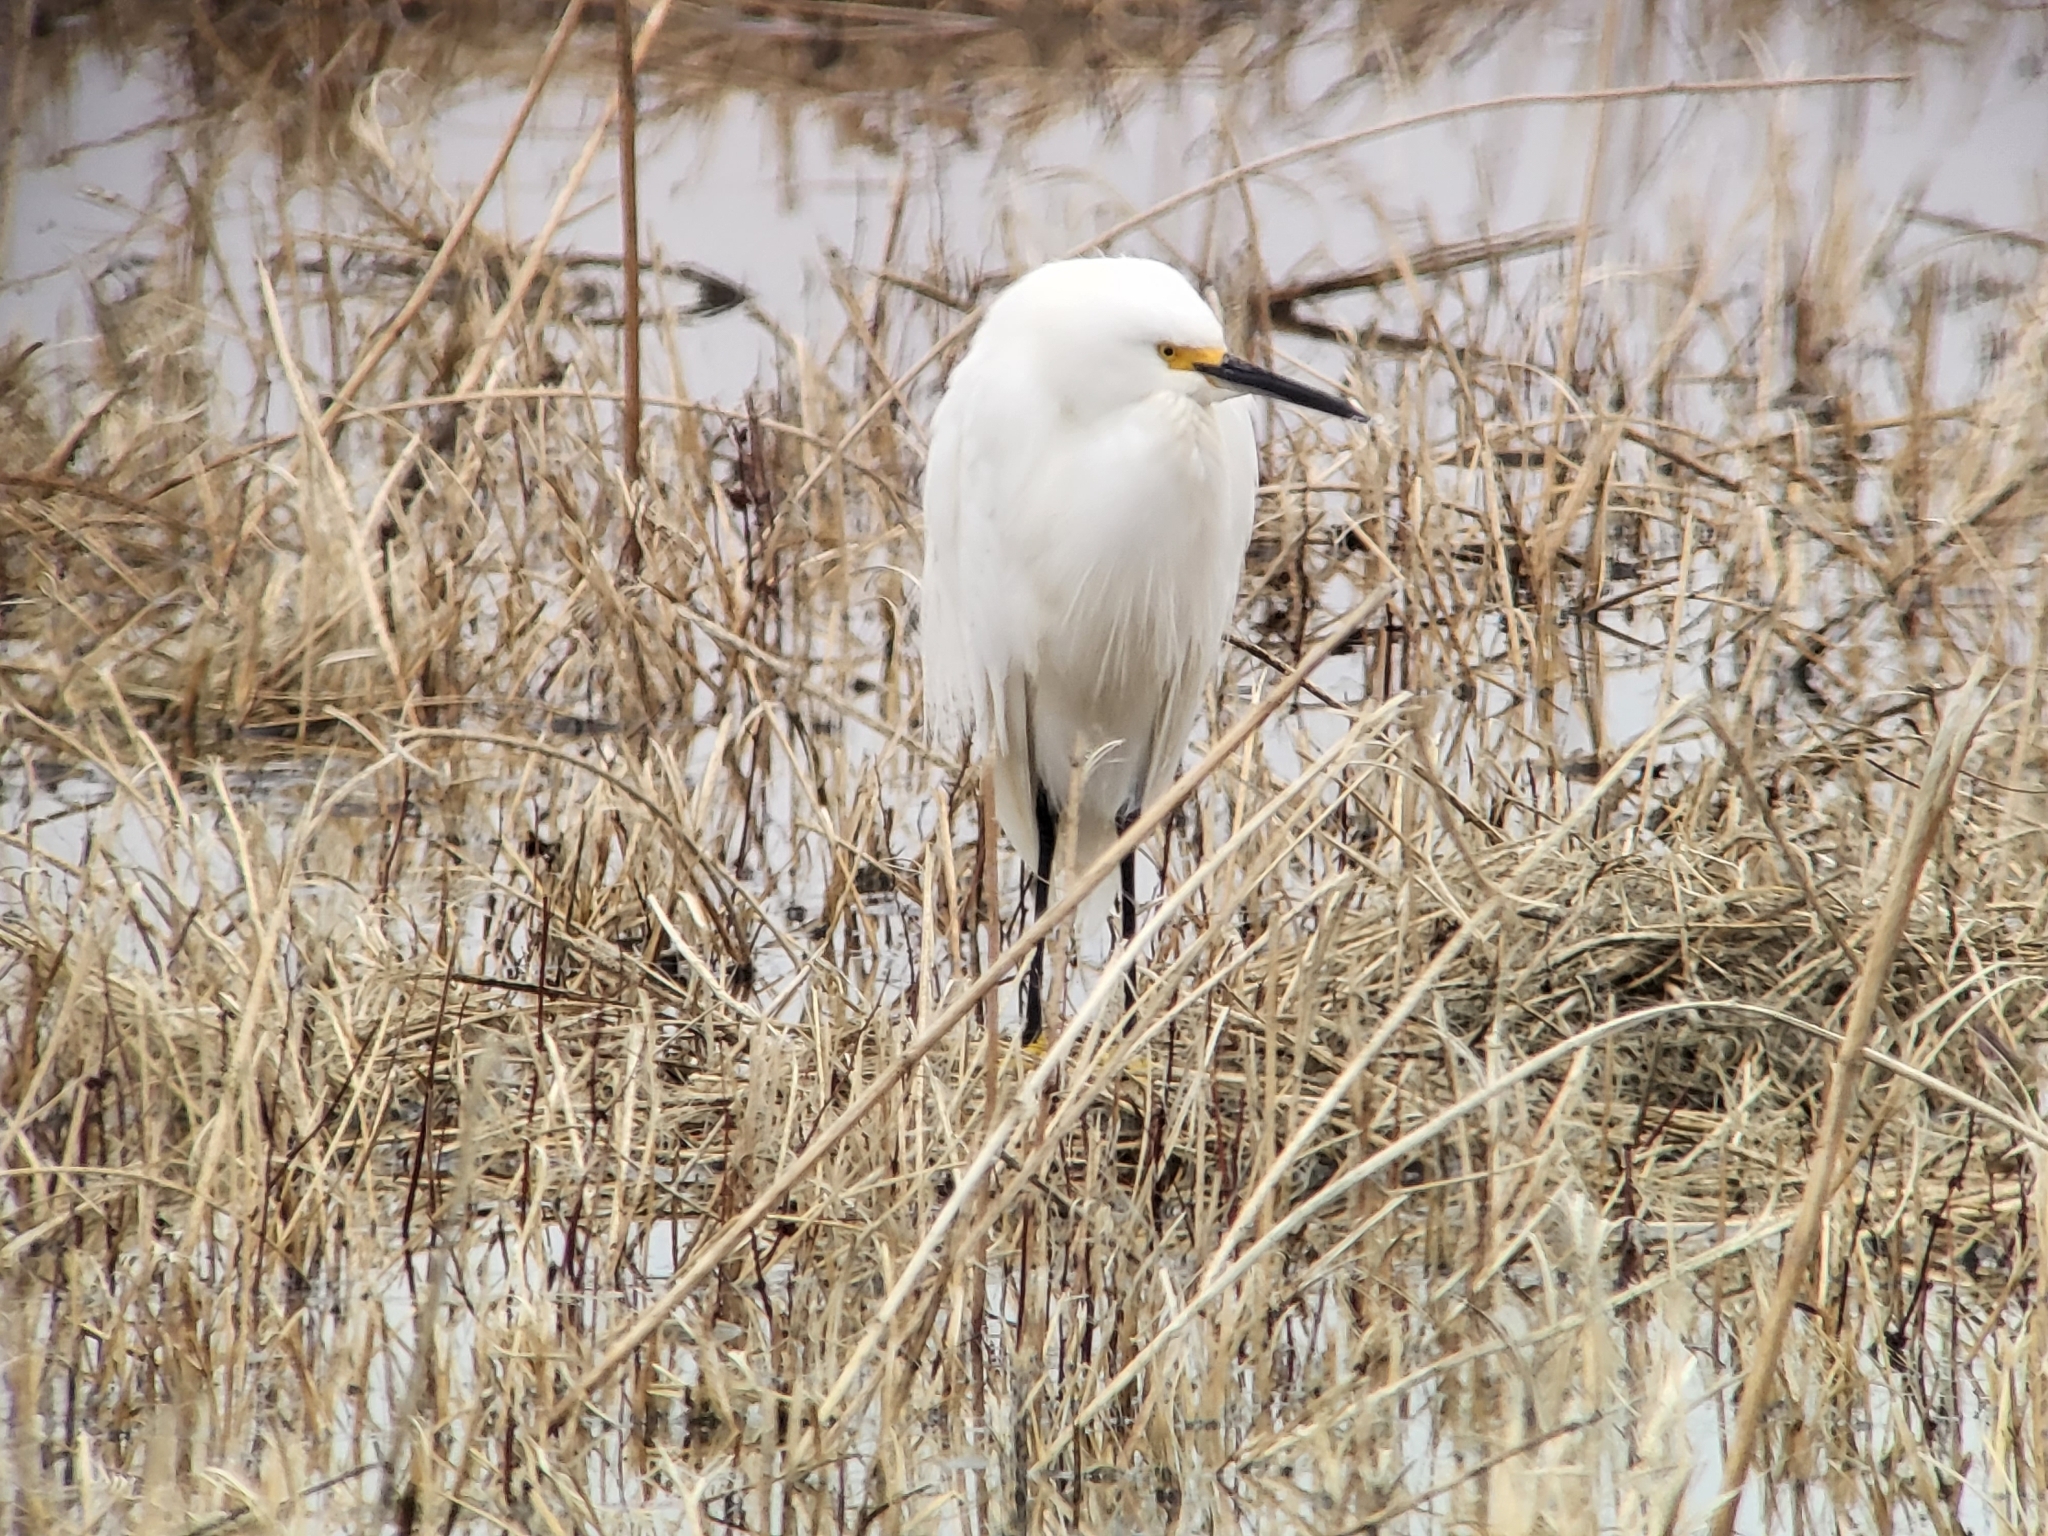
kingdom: Animalia
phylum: Chordata
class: Aves
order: Pelecaniformes
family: Ardeidae
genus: Egretta
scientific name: Egretta thula
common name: Snowy egret
